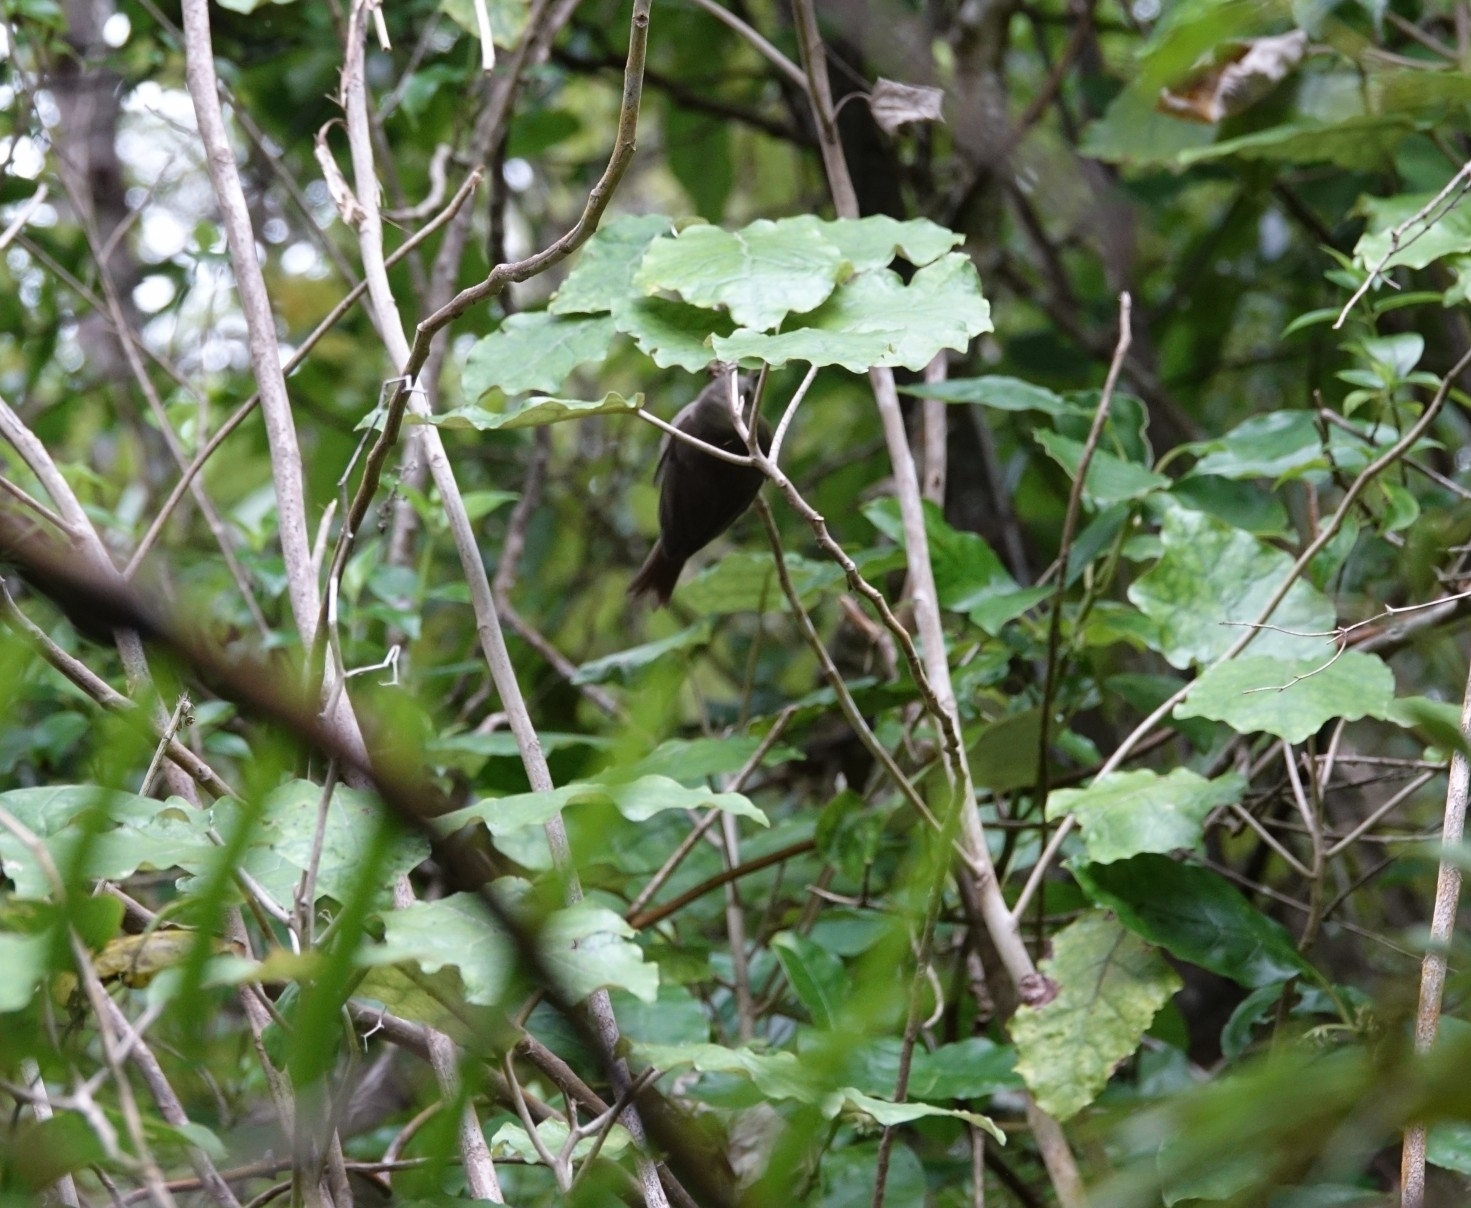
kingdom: Animalia
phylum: Chordata
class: Aves
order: Passeriformes
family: Acanthizidae
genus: Mohoua
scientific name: Mohoua albicilla
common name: Whitehead
